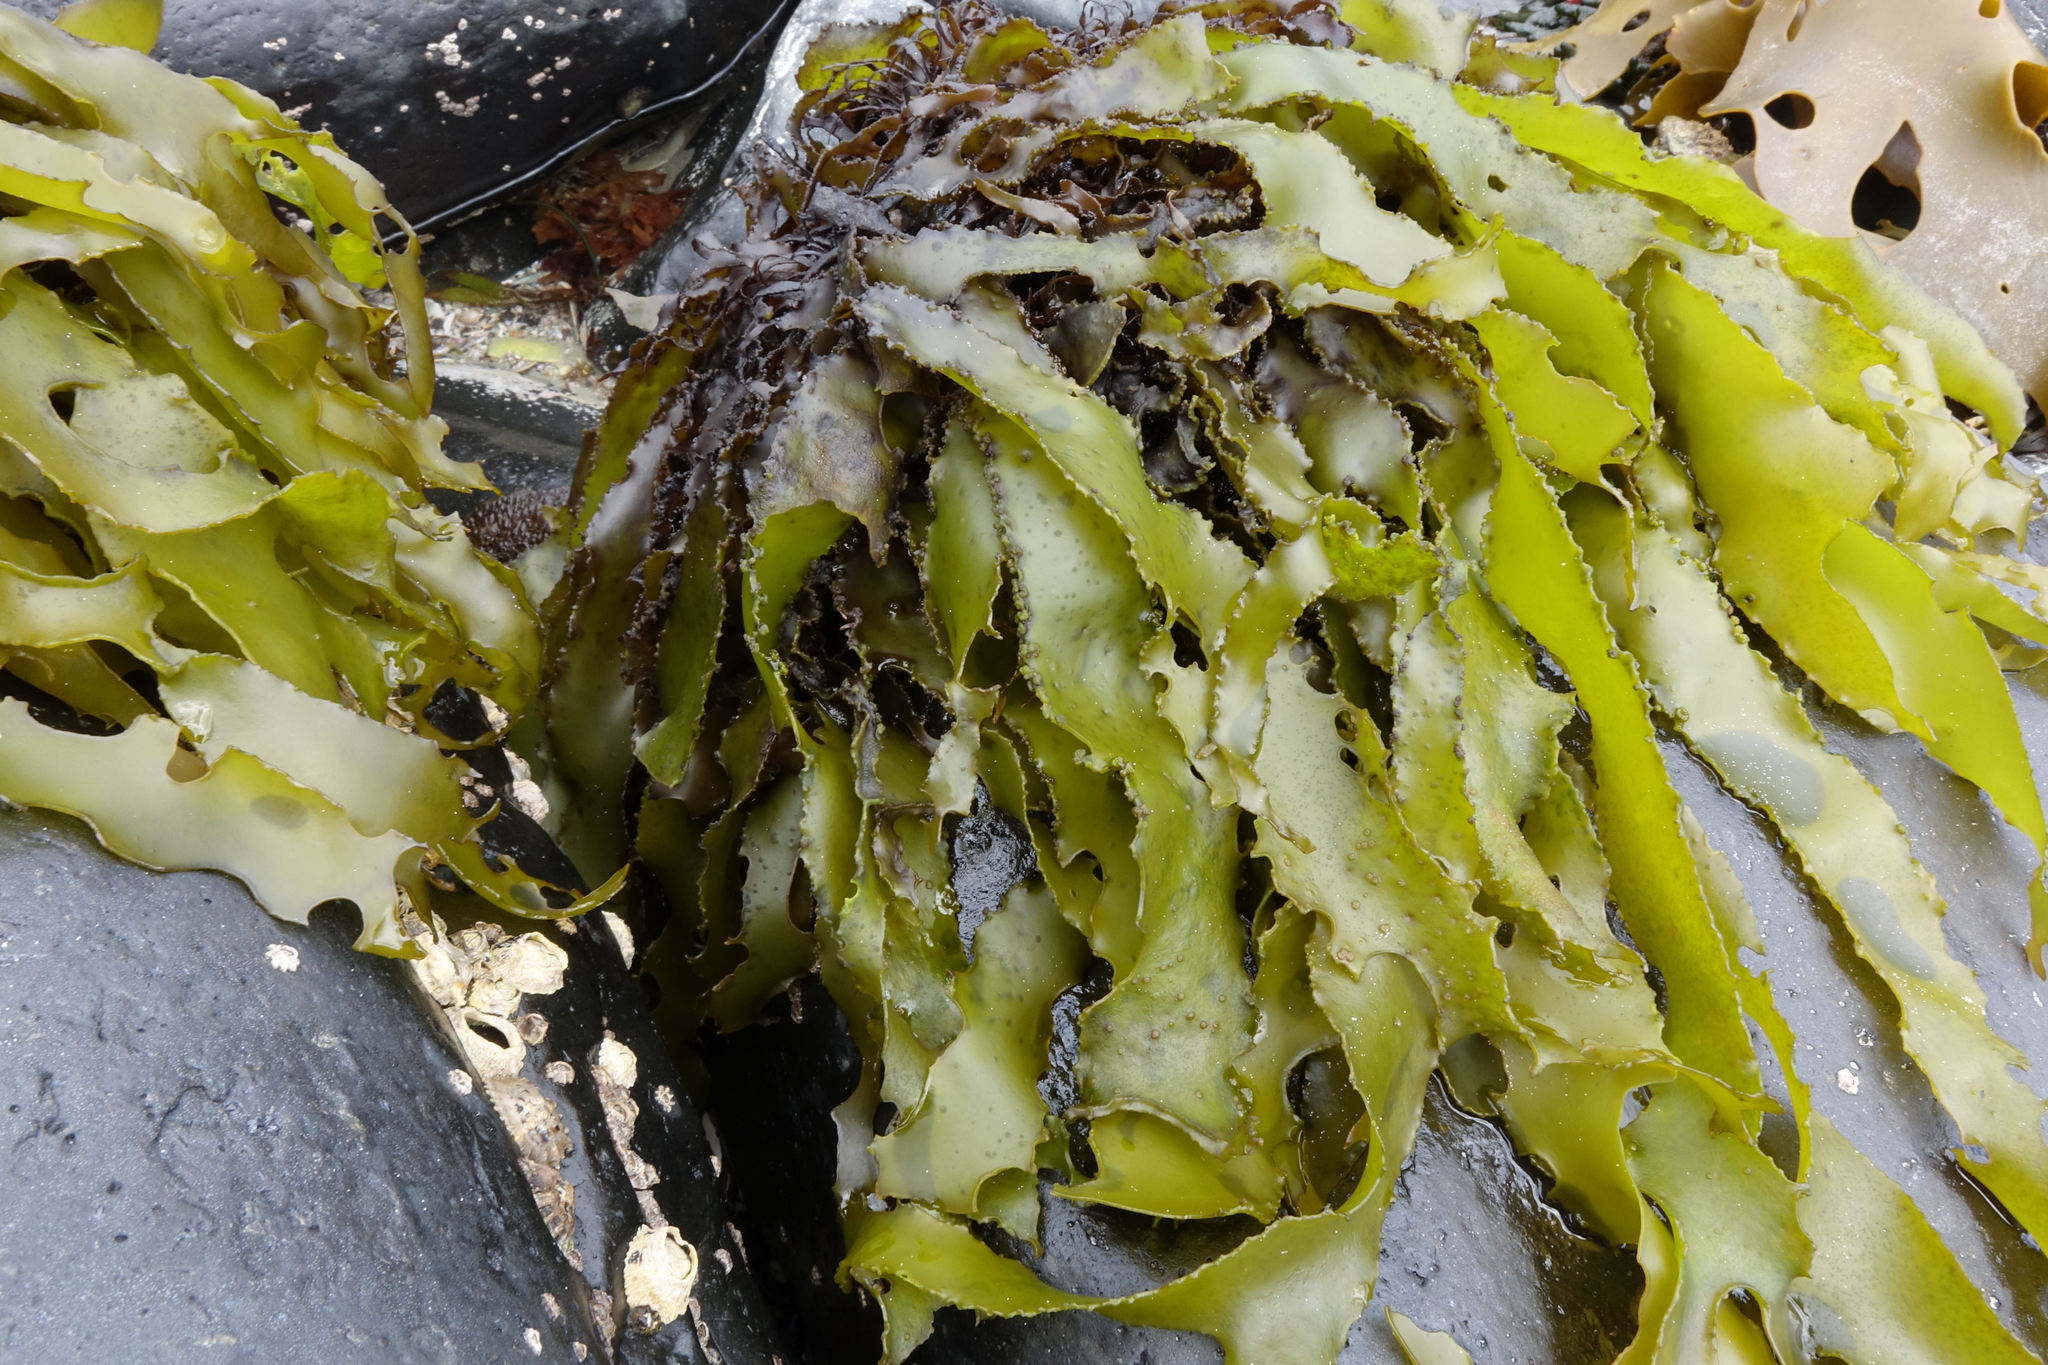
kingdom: Plantae
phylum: Rhodophyta
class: Florideophyceae
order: Halymeniales
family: Halymeniaceae
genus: Pachymenia
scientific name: Pachymenia dichotoma
